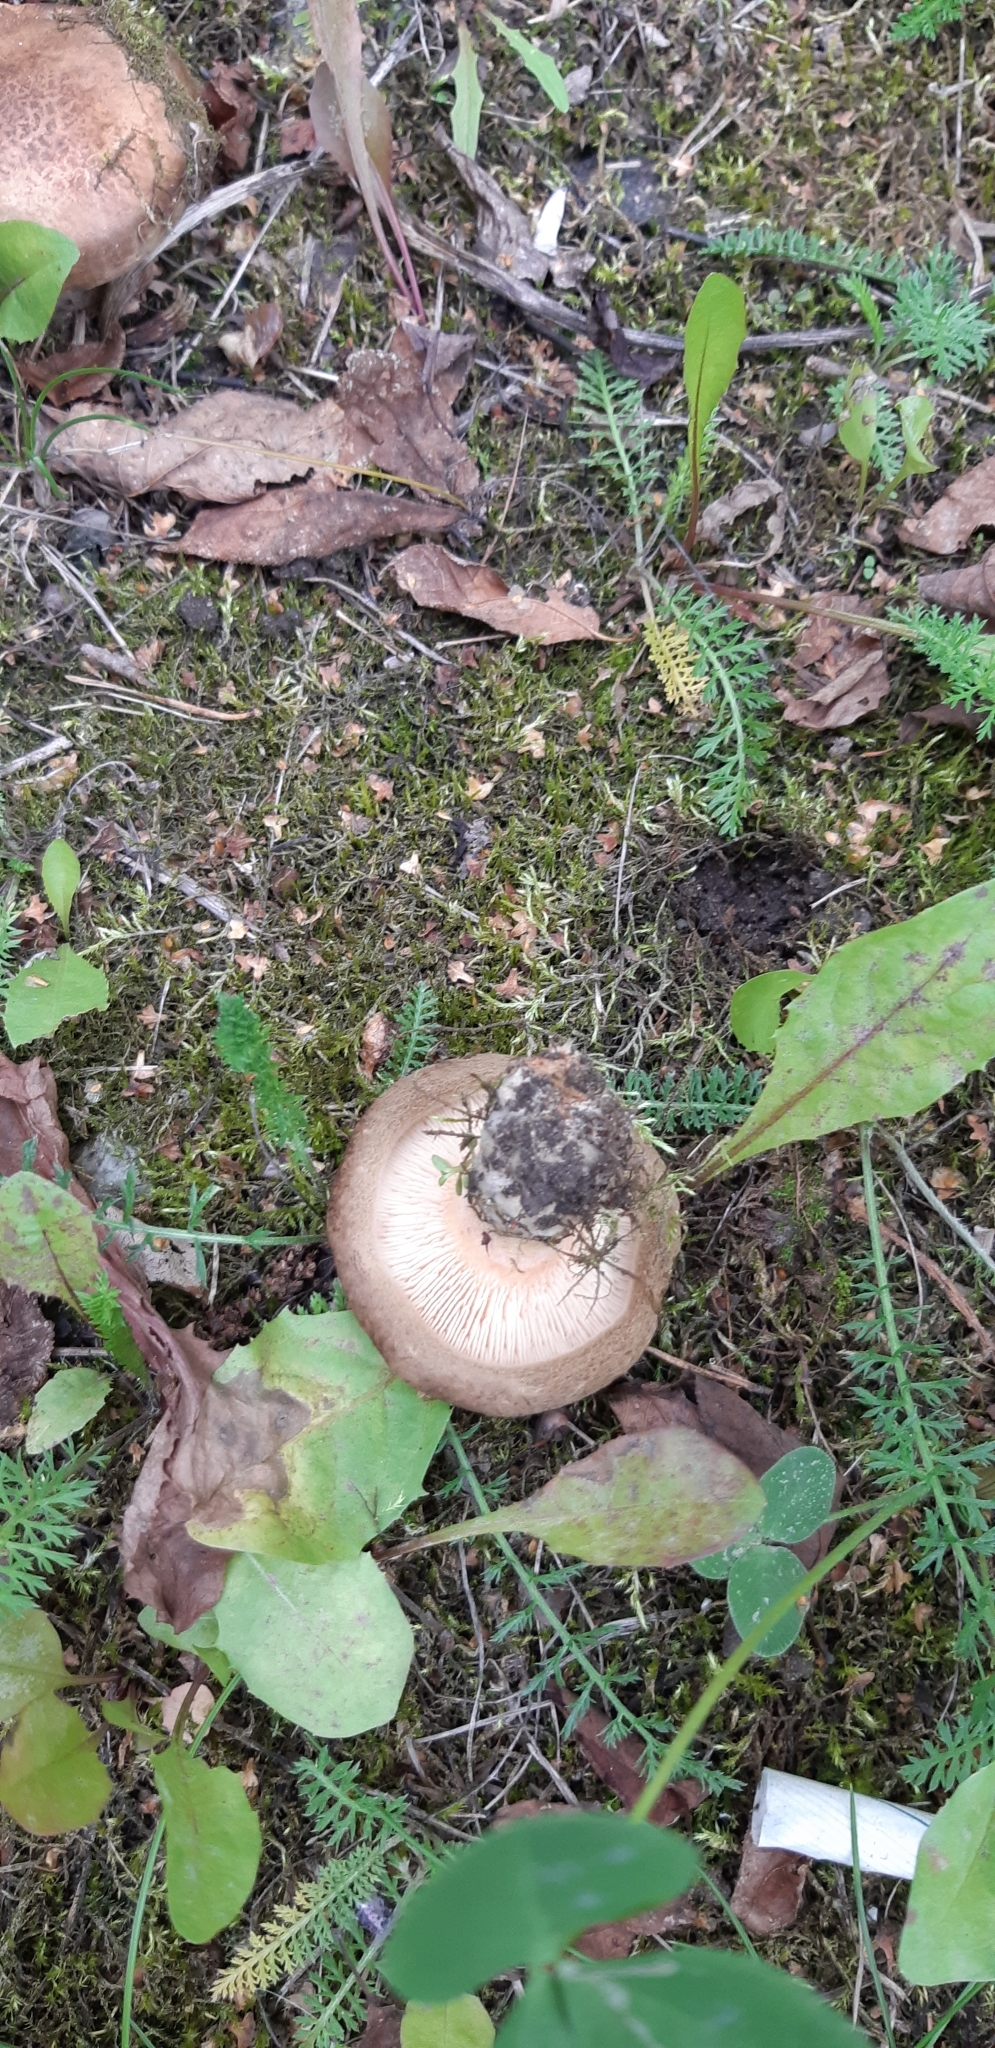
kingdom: Fungi
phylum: Basidiomycota
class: Agaricomycetes
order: Boletales
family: Paxillaceae
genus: Paxillus
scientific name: Paxillus involutus
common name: Brown roll rim
